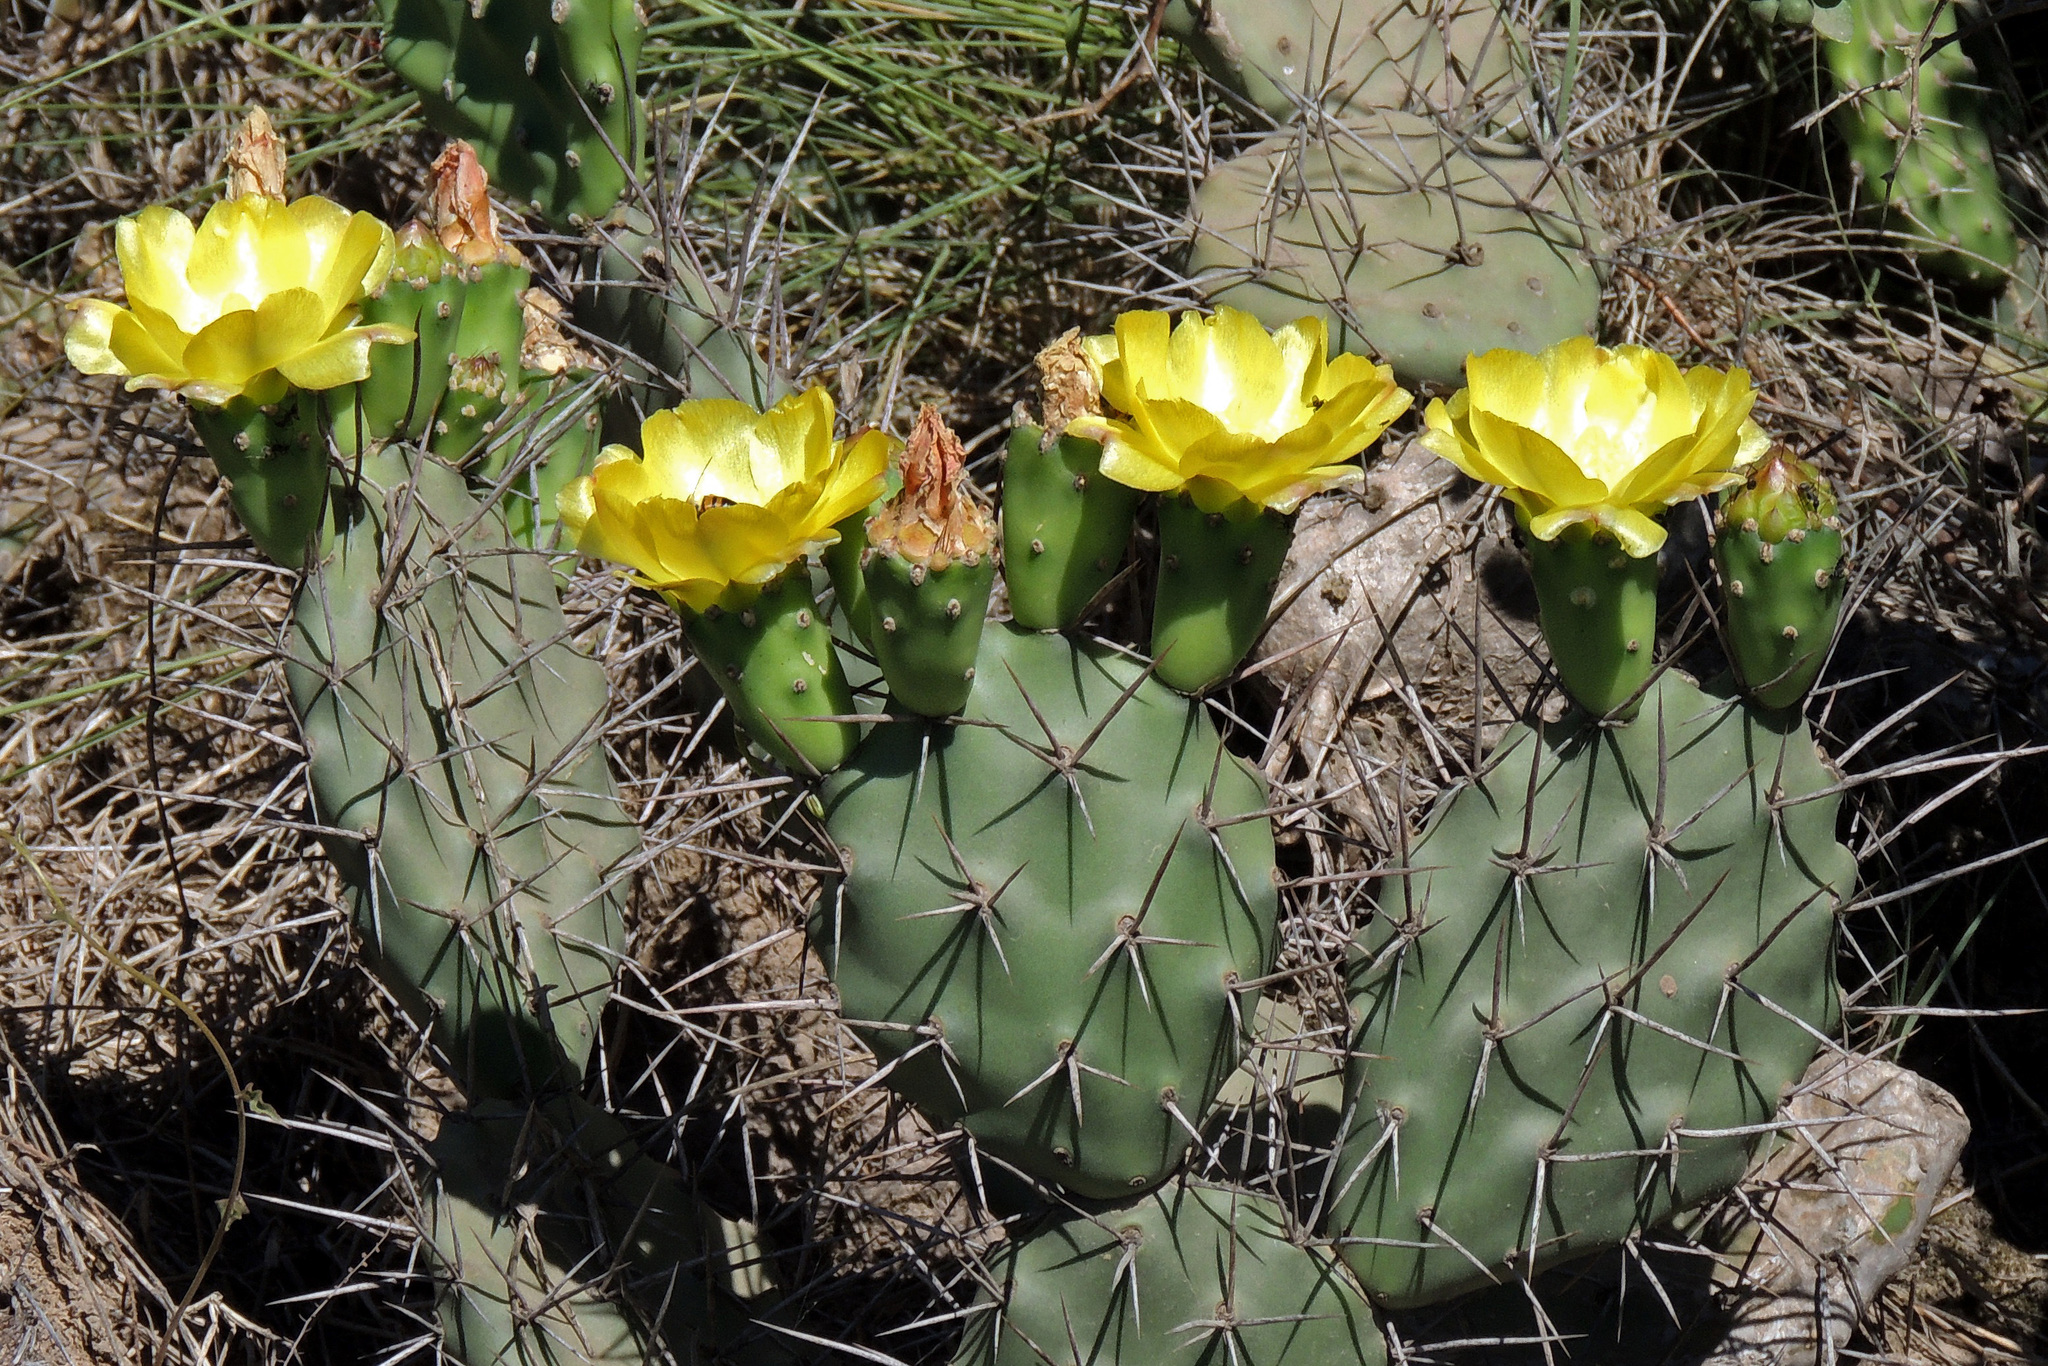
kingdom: Plantae
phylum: Tracheophyta
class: Magnoliopsida
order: Caryophyllales
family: Cactaceae
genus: Opuntia
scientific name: Opuntia sulphurea
